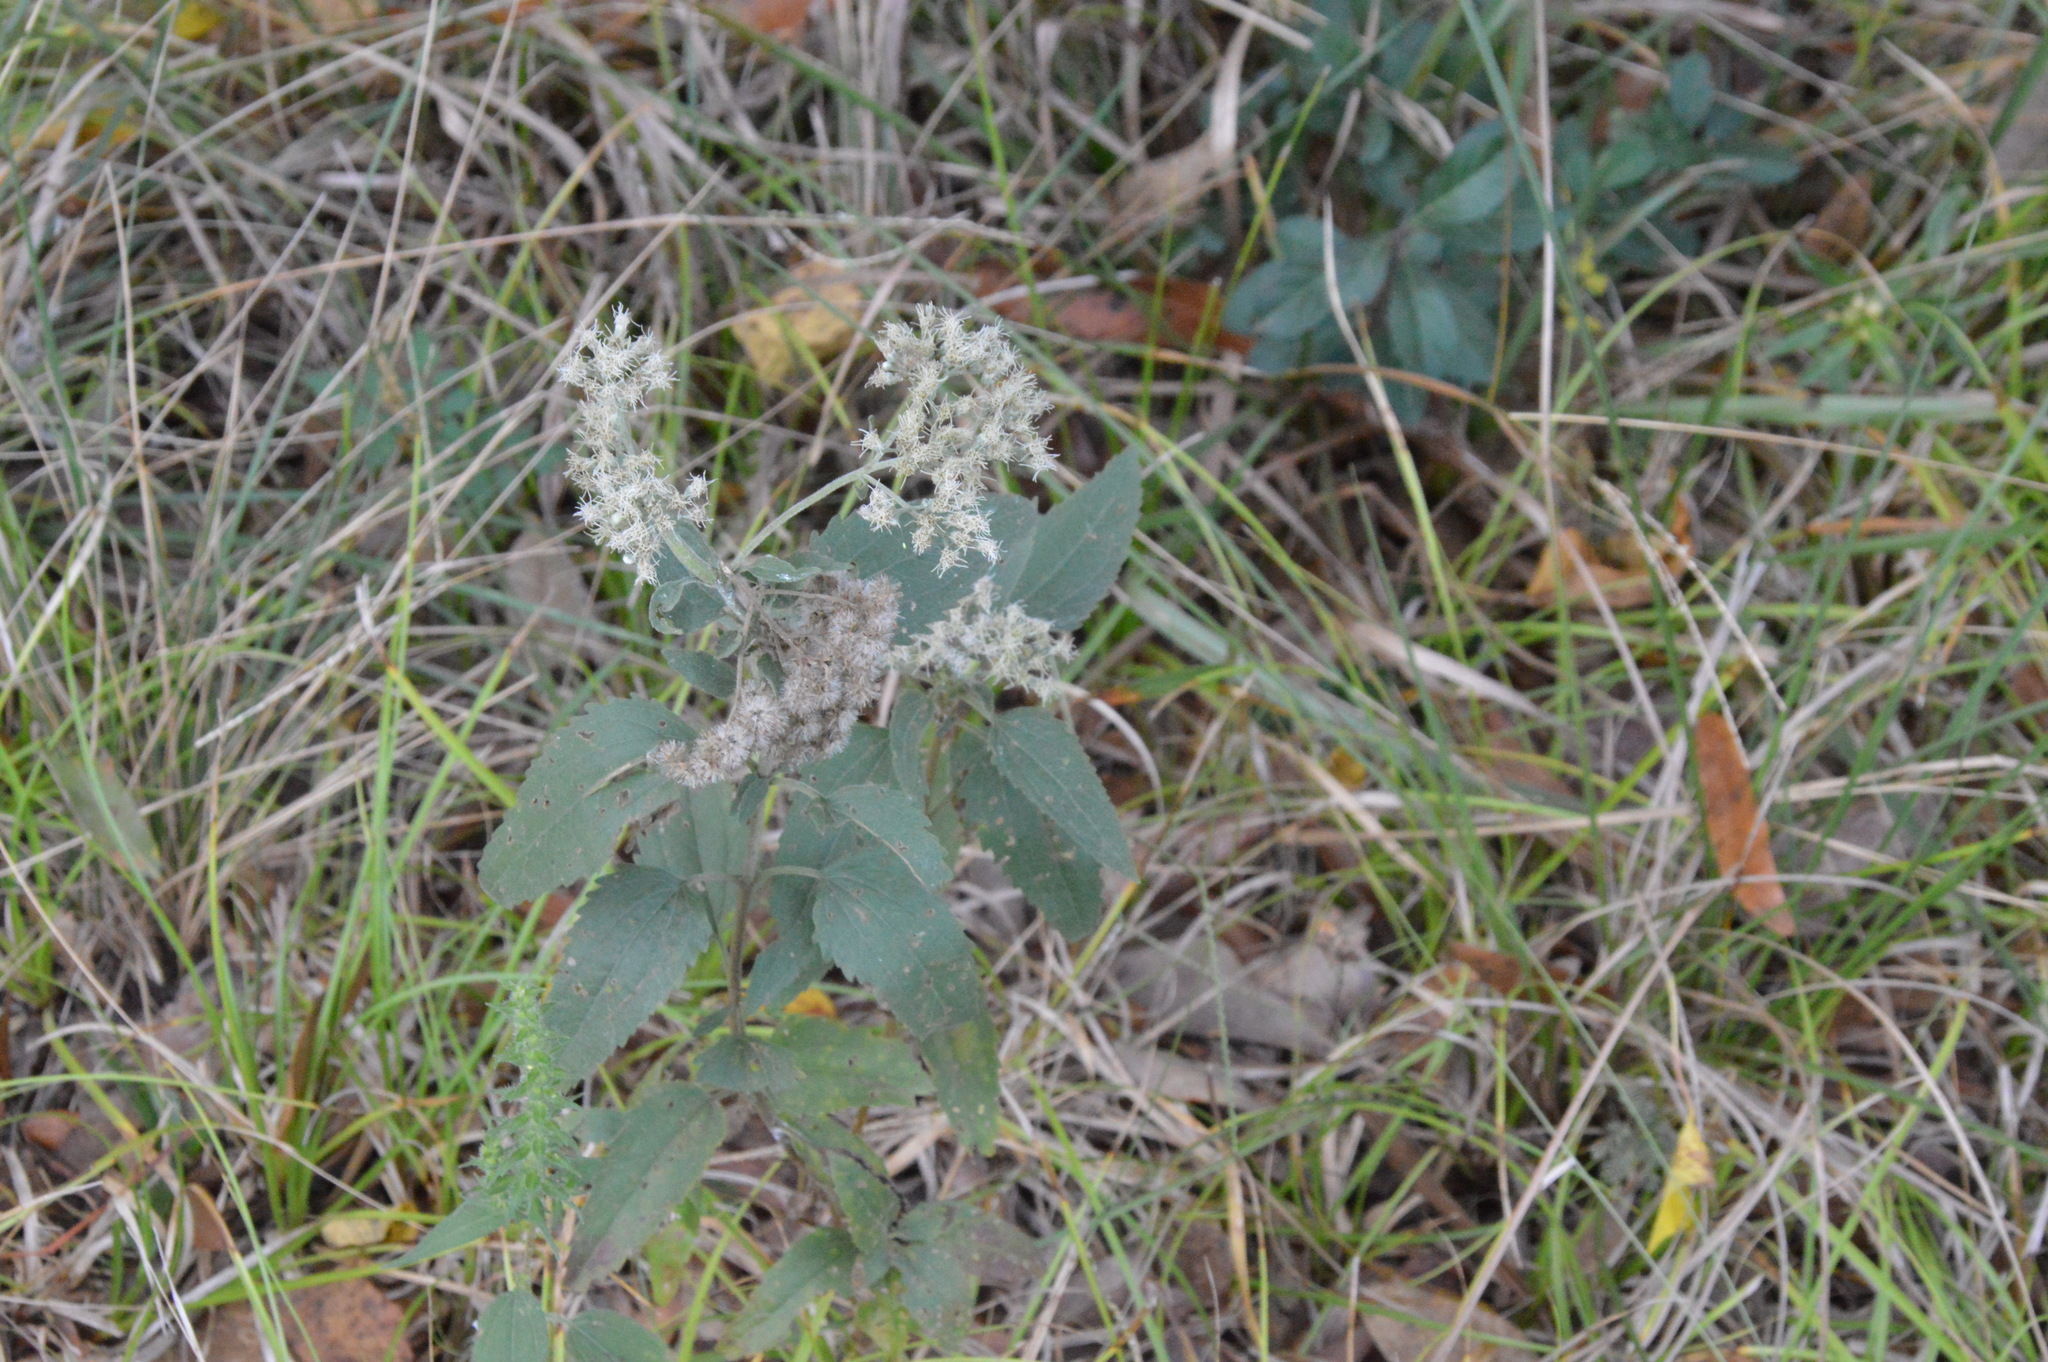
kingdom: Plantae
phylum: Tracheophyta
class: Magnoliopsida
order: Asterales
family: Asteraceae
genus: Eupatorium
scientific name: Eupatorium serotinum
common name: Late boneset
